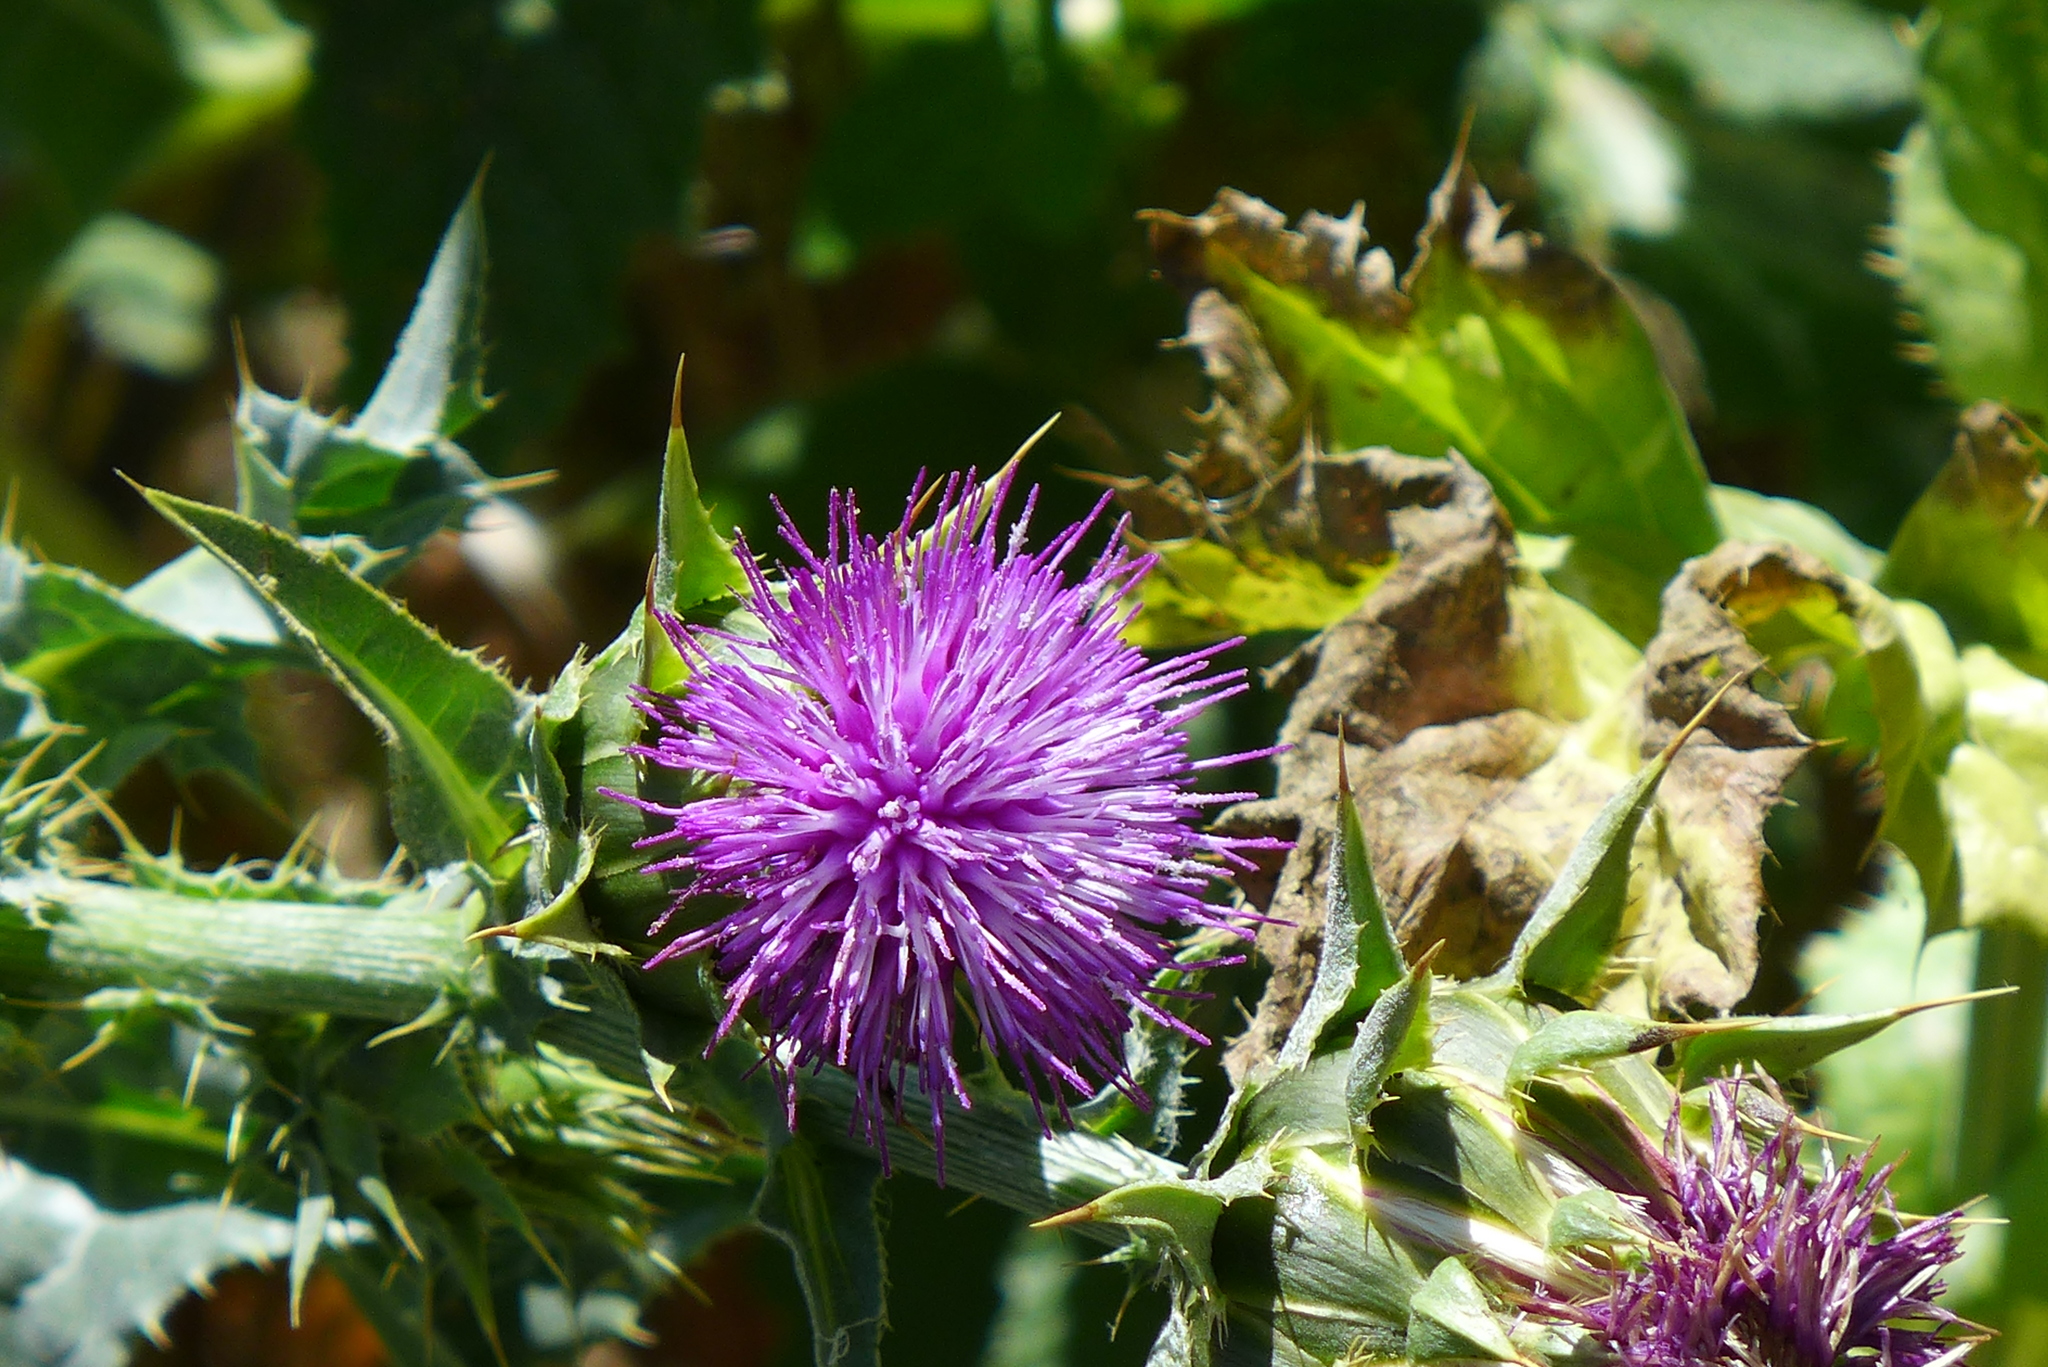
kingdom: Plantae
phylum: Tracheophyta
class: Magnoliopsida
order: Asterales
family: Asteraceae
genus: Silybum
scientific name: Silybum marianum
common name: Milk thistle
